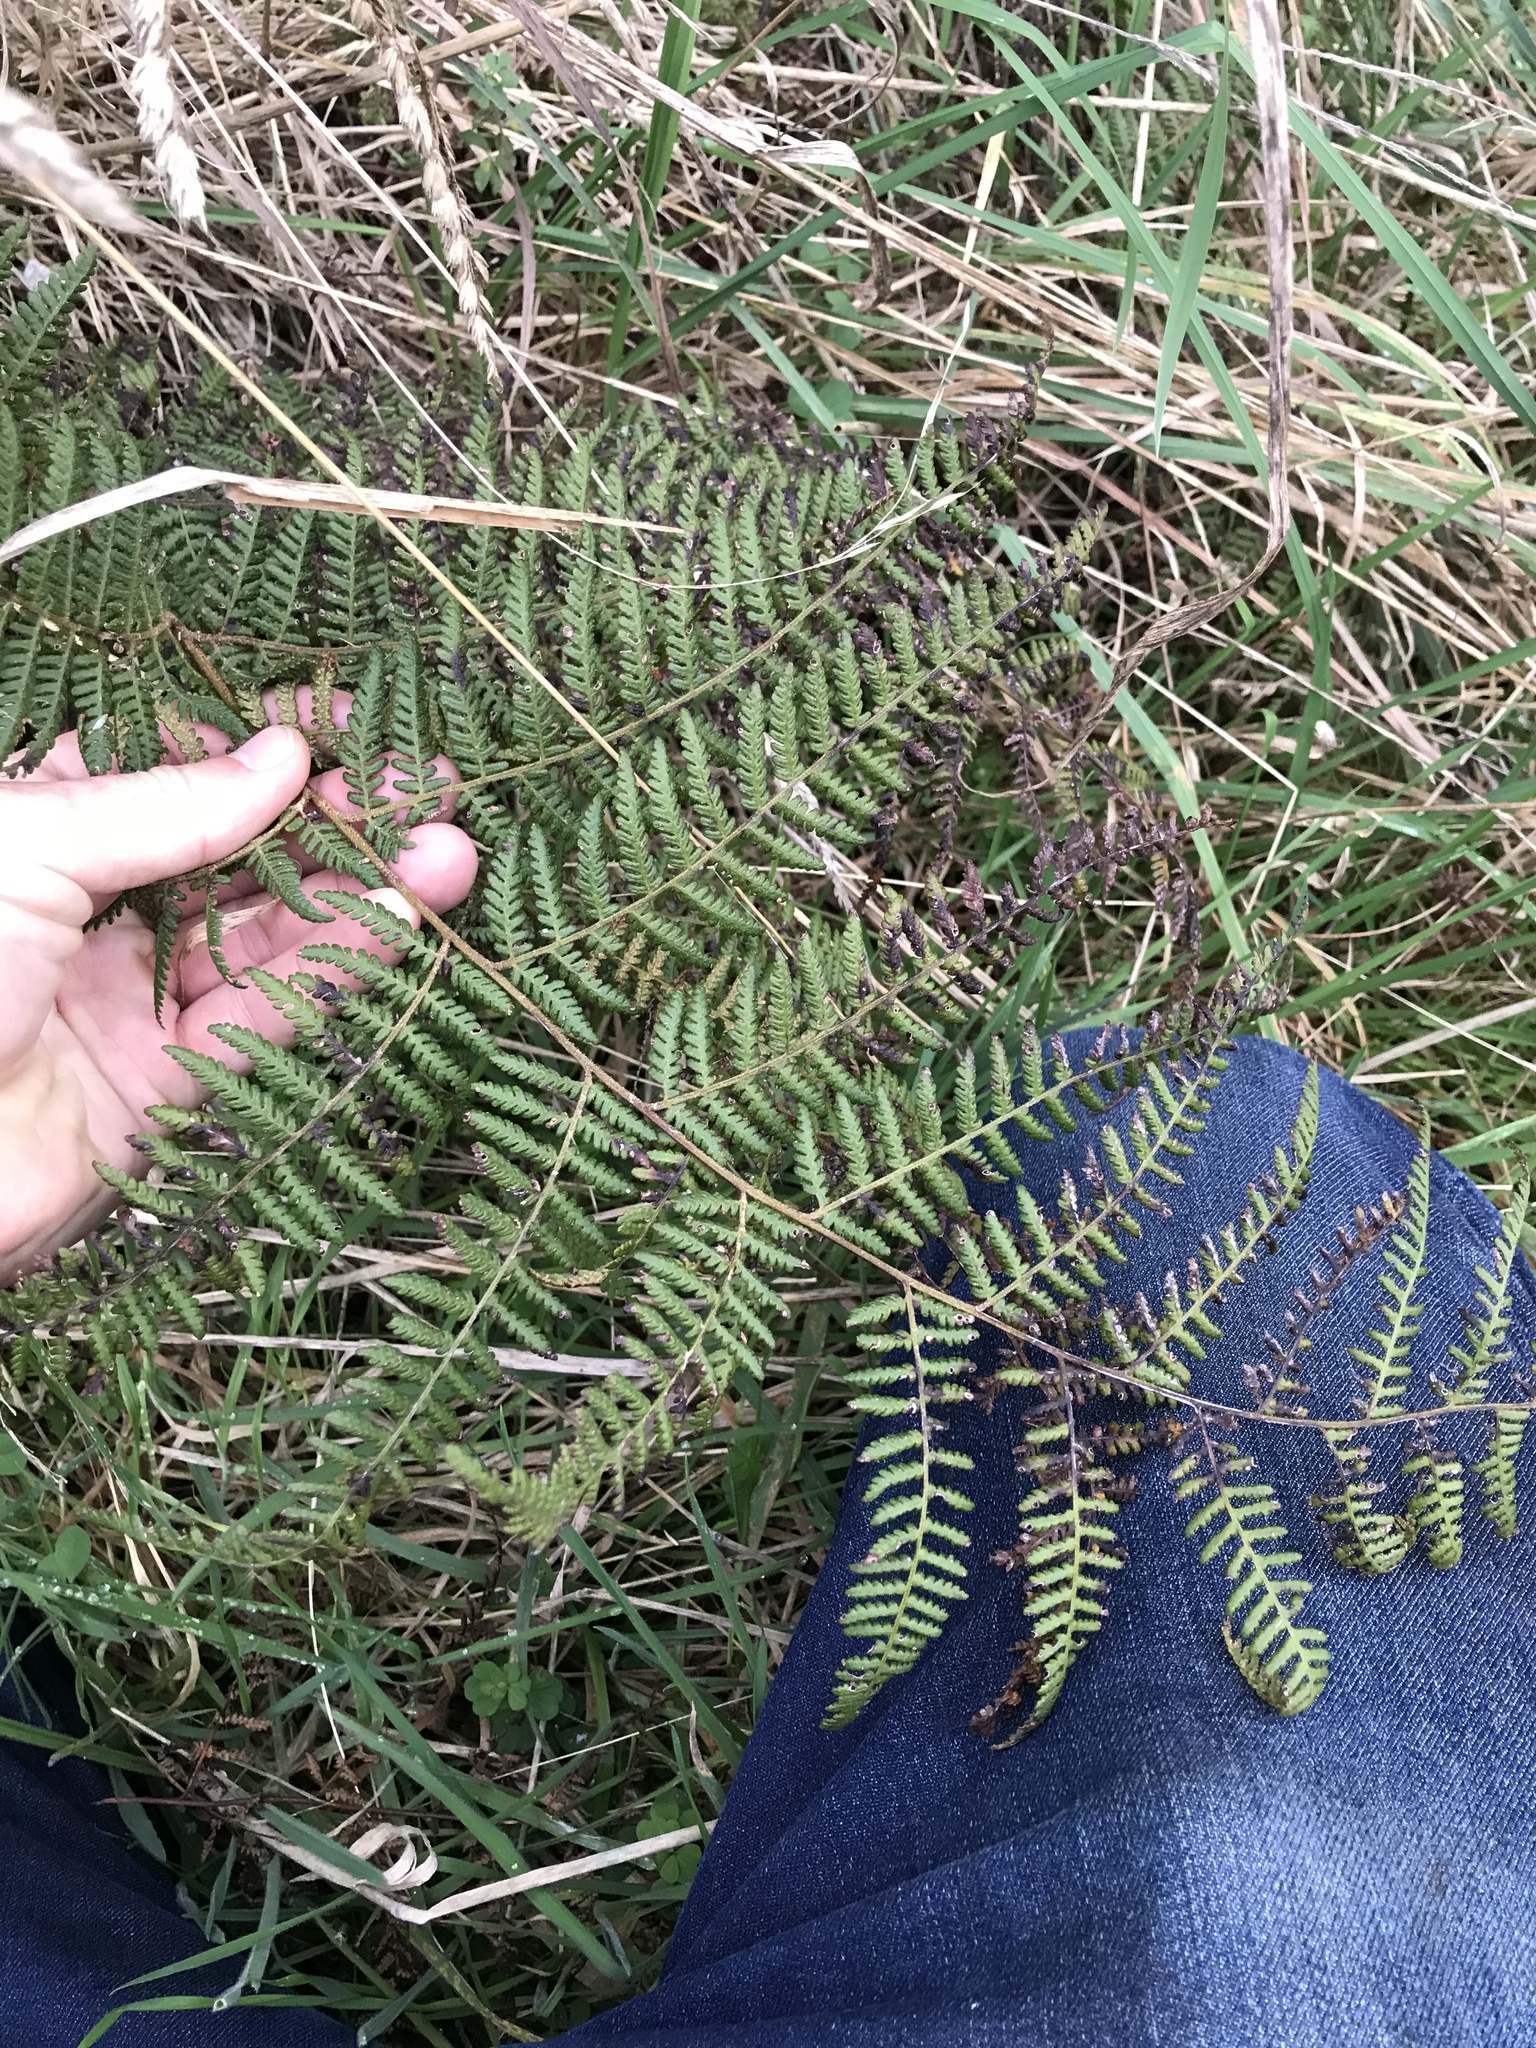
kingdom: Plantae
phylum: Tracheophyta
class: Polypodiopsida
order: Polypodiales
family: Dennstaedtiaceae
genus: Hypolepis
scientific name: Hypolepis ambigua
